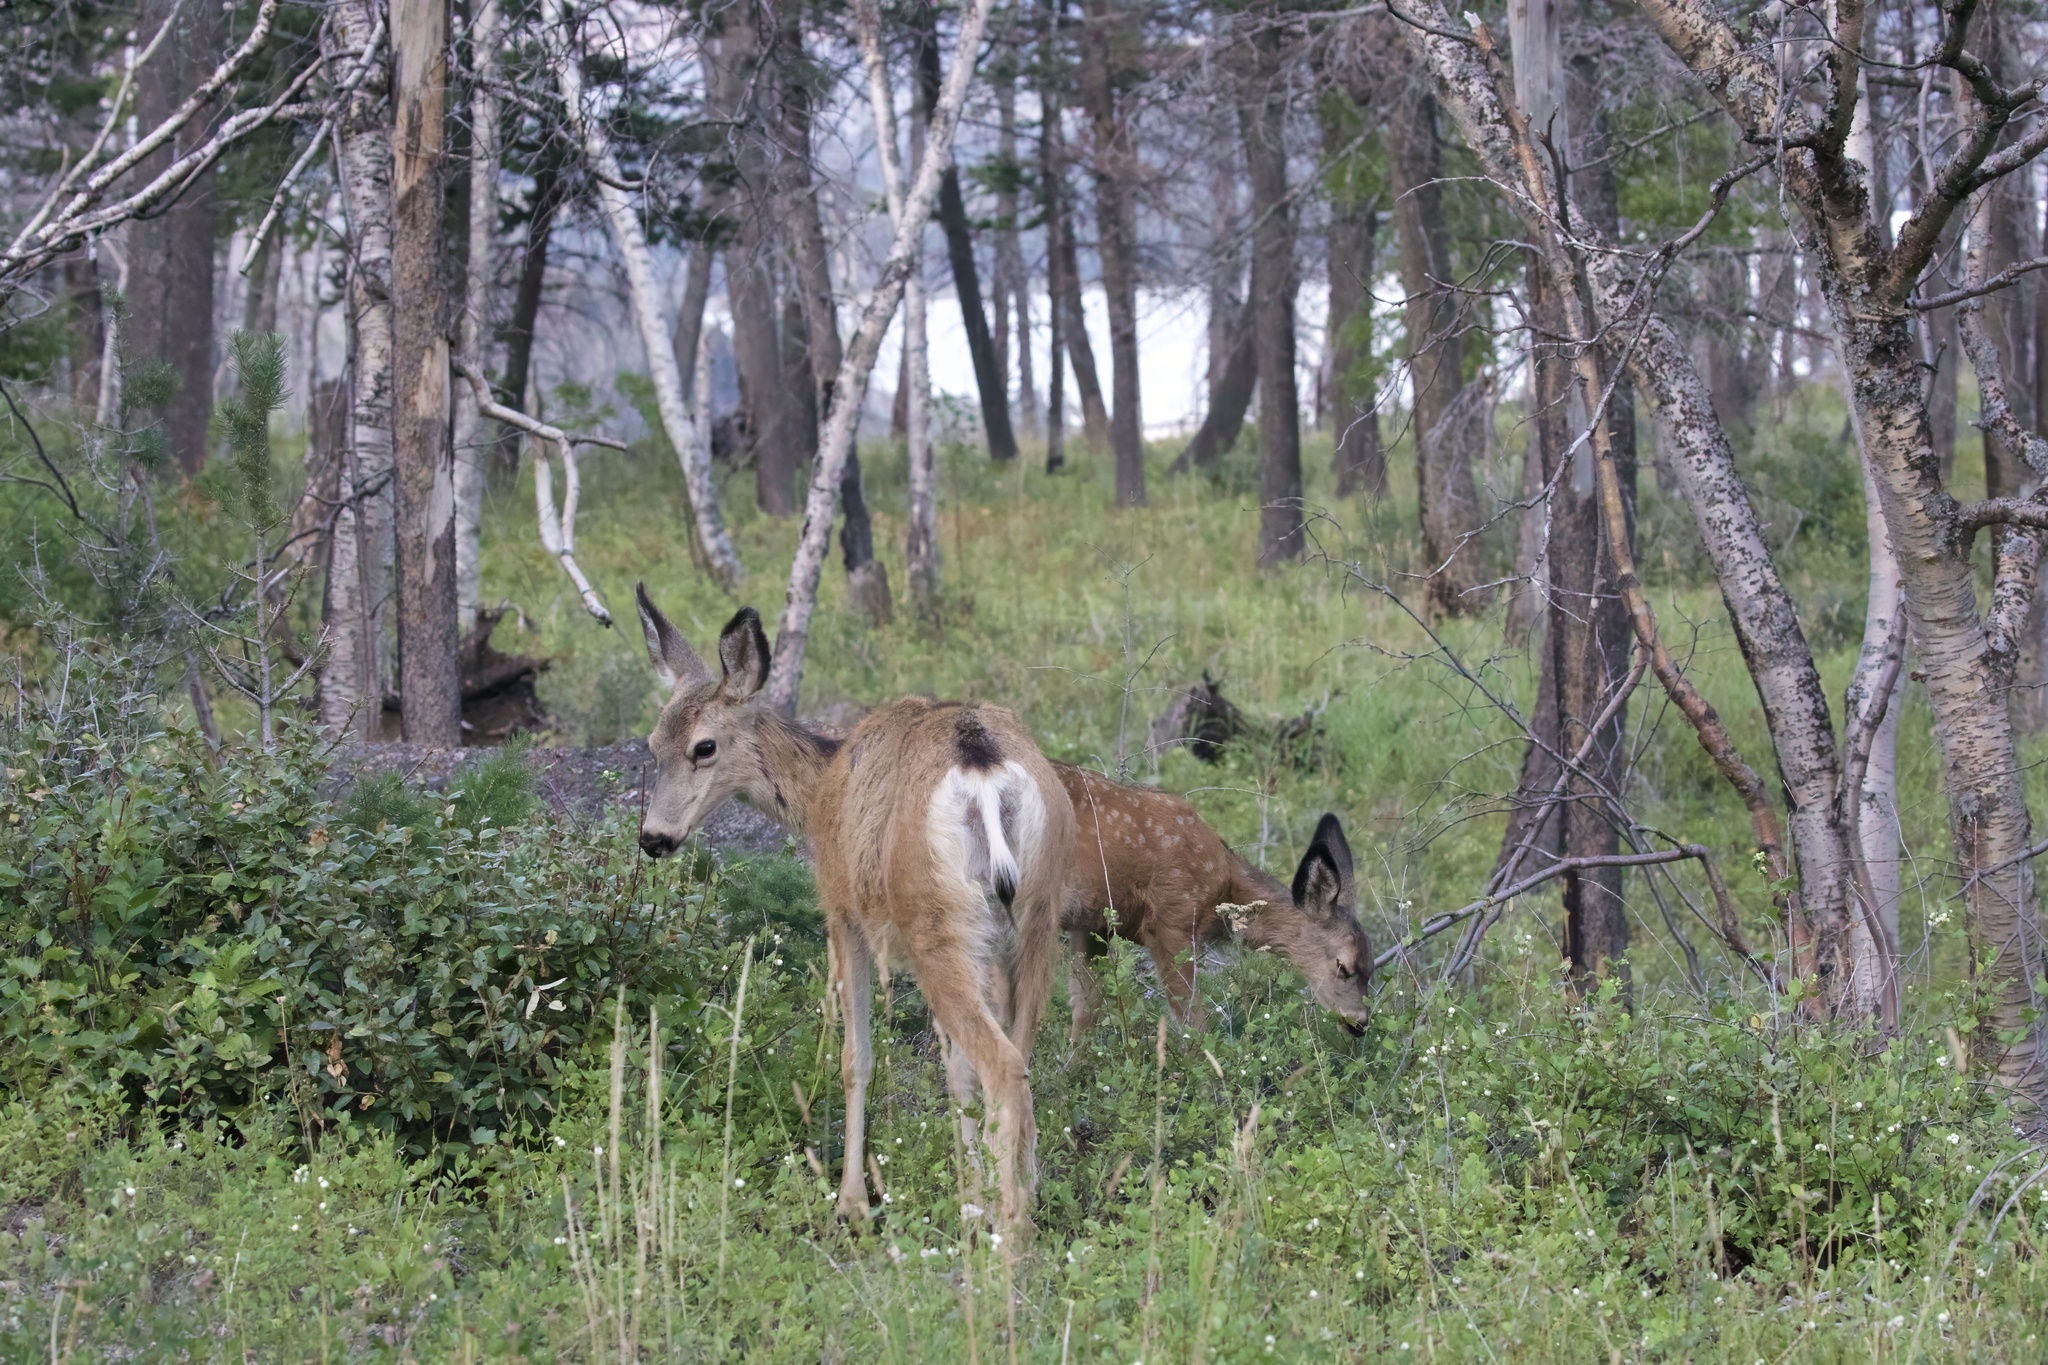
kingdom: Animalia
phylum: Chordata
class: Mammalia
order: Artiodactyla
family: Cervidae
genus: Odocoileus
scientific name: Odocoileus hemionus
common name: Mule deer
